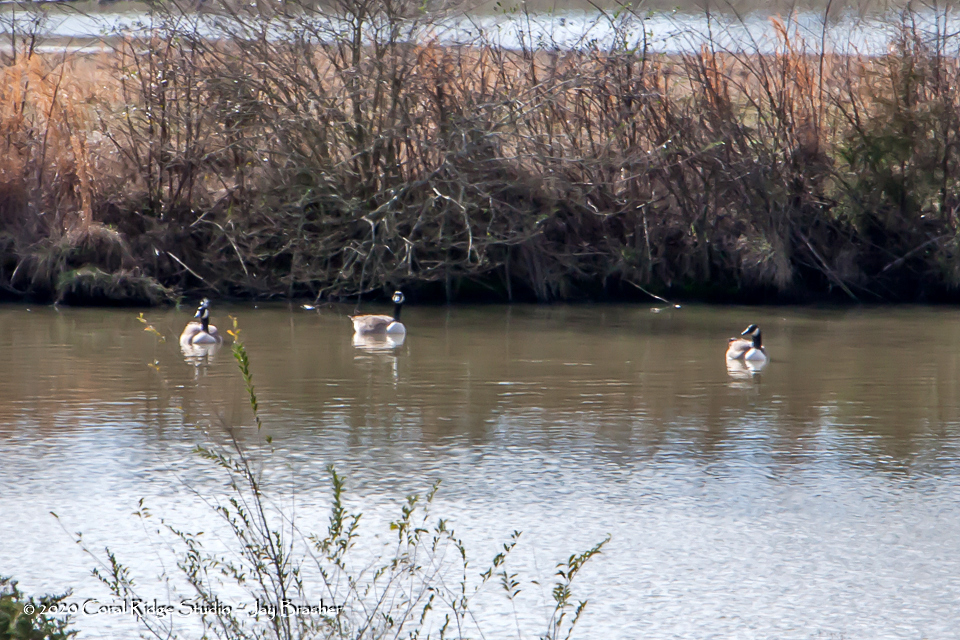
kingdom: Animalia
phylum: Chordata
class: Aves
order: Anseriformes
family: Anatidae
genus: Branta
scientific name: Branta canadensis
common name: Canada goose
